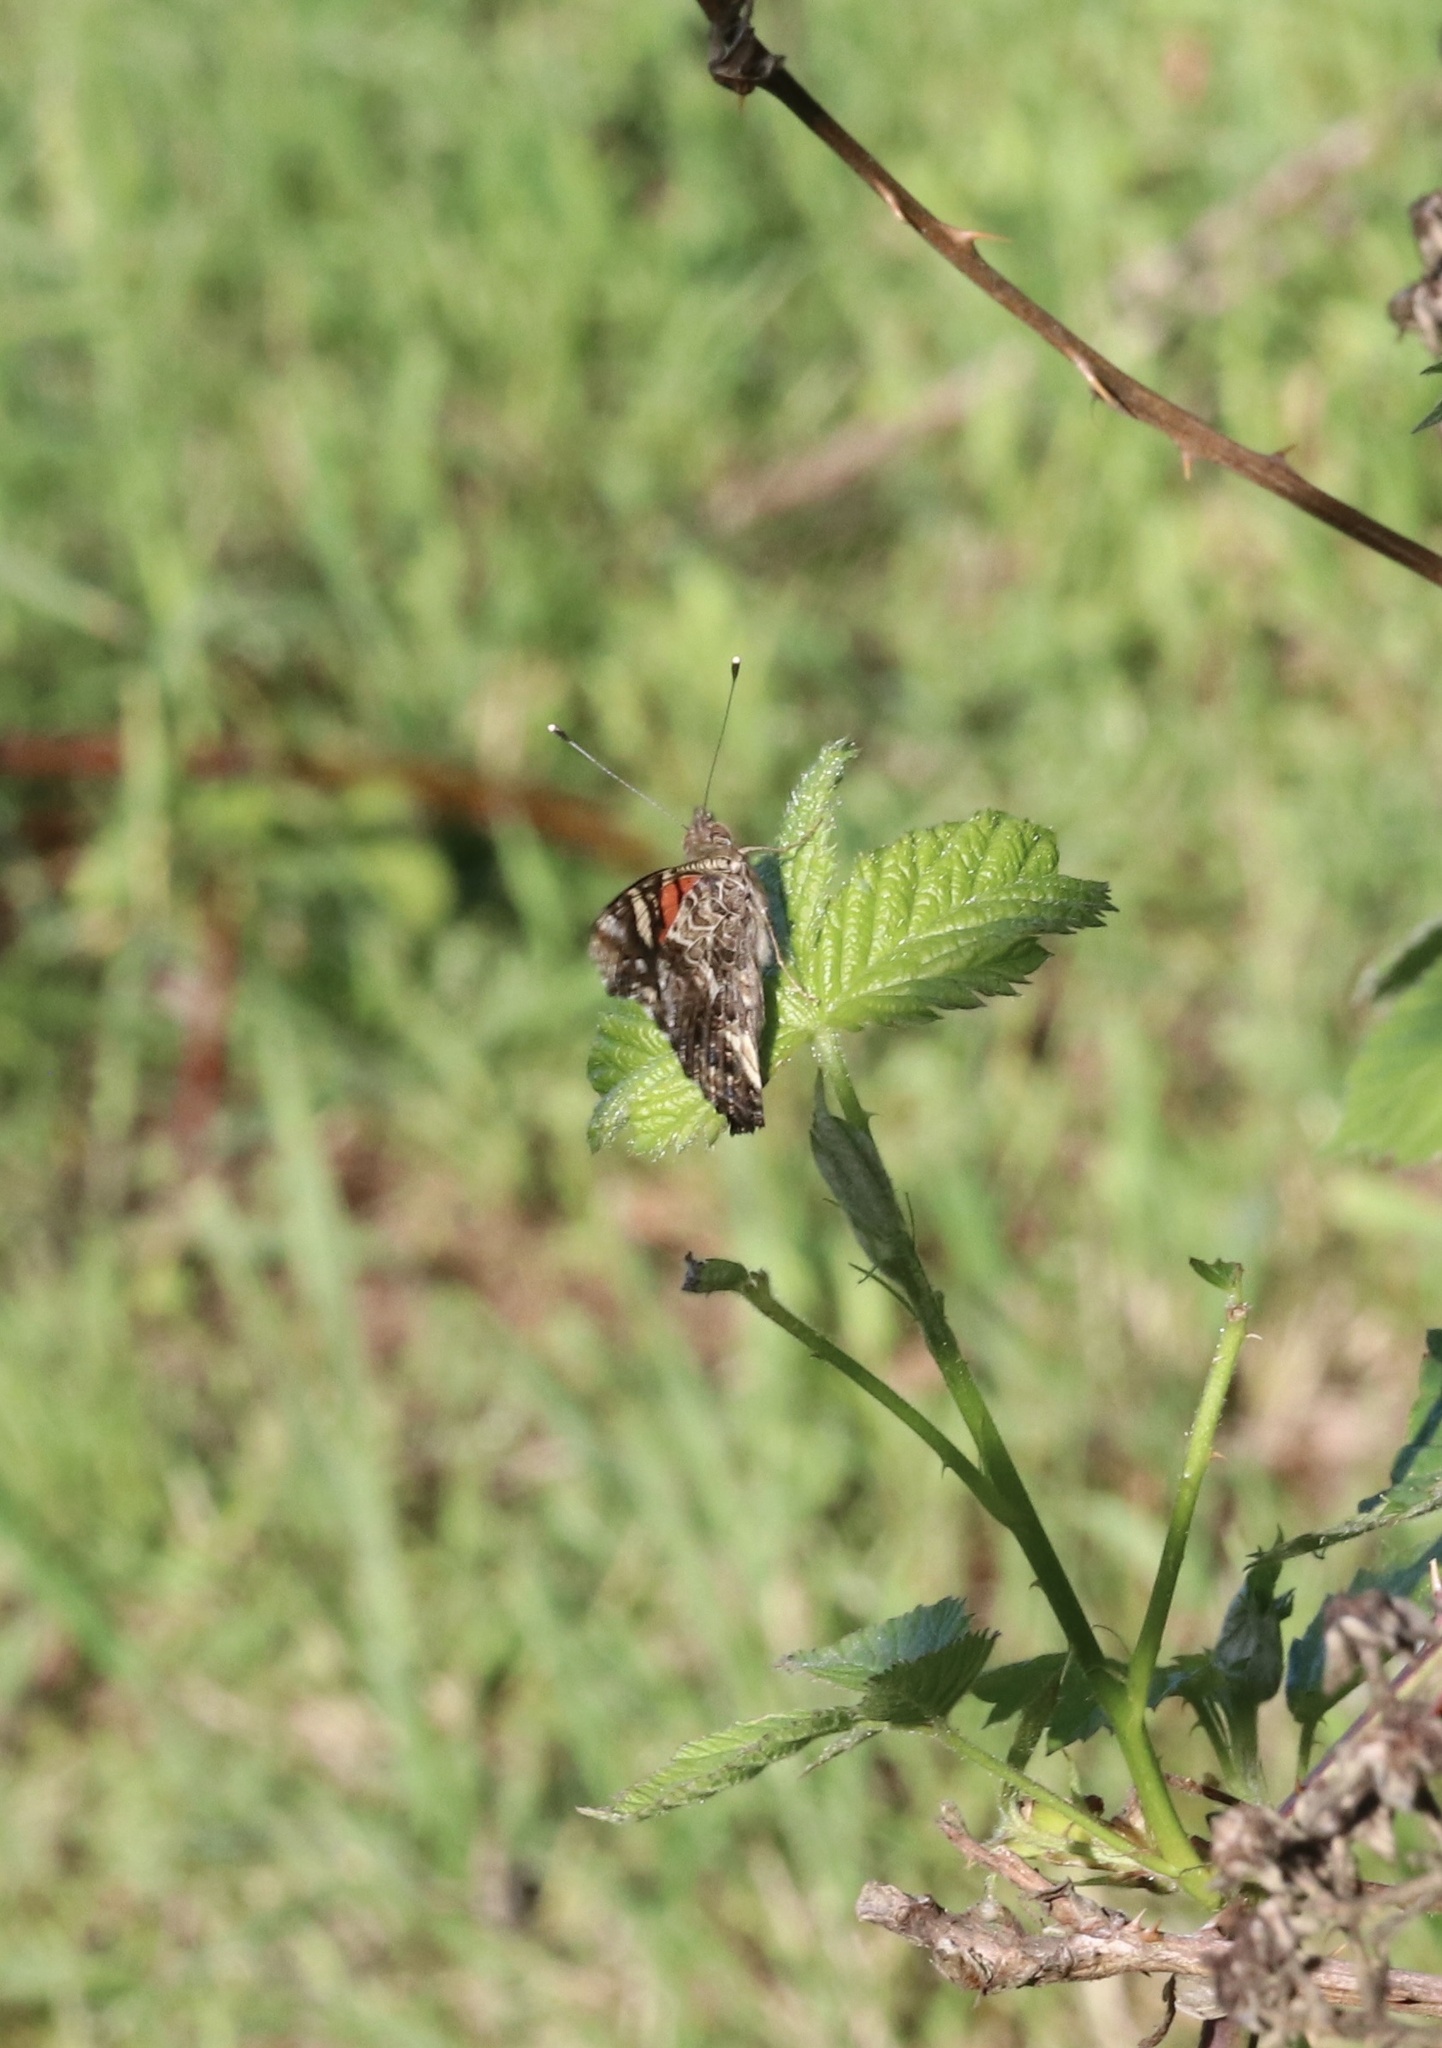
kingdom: Animalia
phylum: Arthropoda
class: Insecta
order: Lepidoptera
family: Nymphalidae
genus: Vanessa
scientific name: Vanessa carye
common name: Subtropical lady
